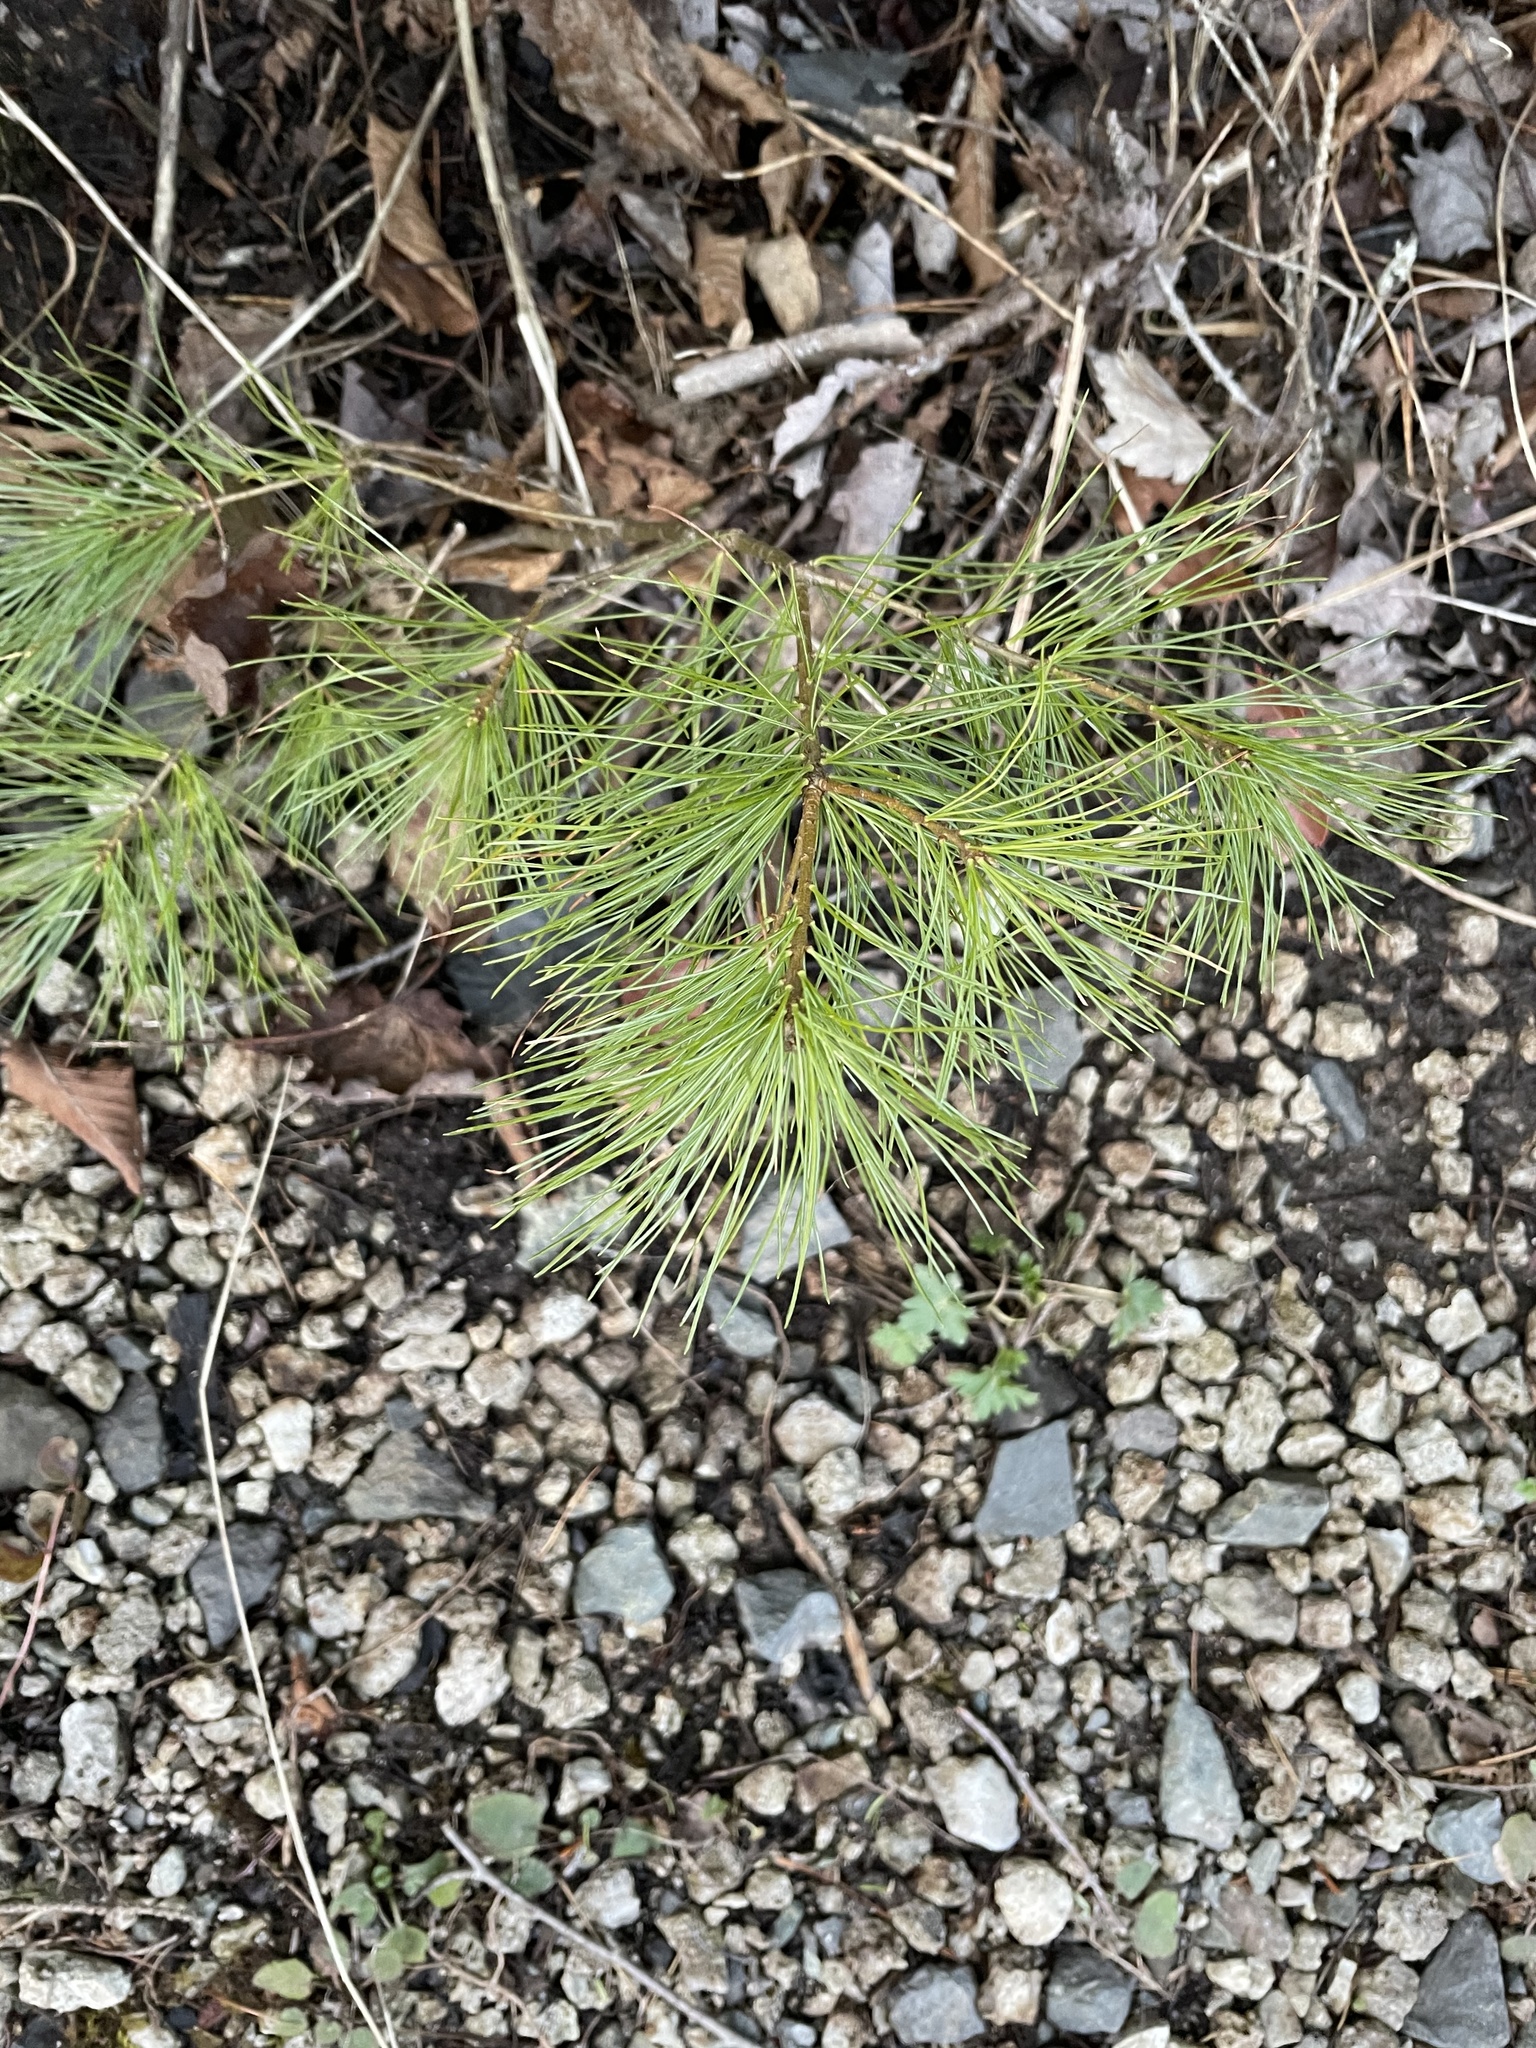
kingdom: Plantae
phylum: Tracheophyta
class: Pinopsida
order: Pinales
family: Pinaceae
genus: Pinus
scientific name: Pinus strobus
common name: Weymouth pine
